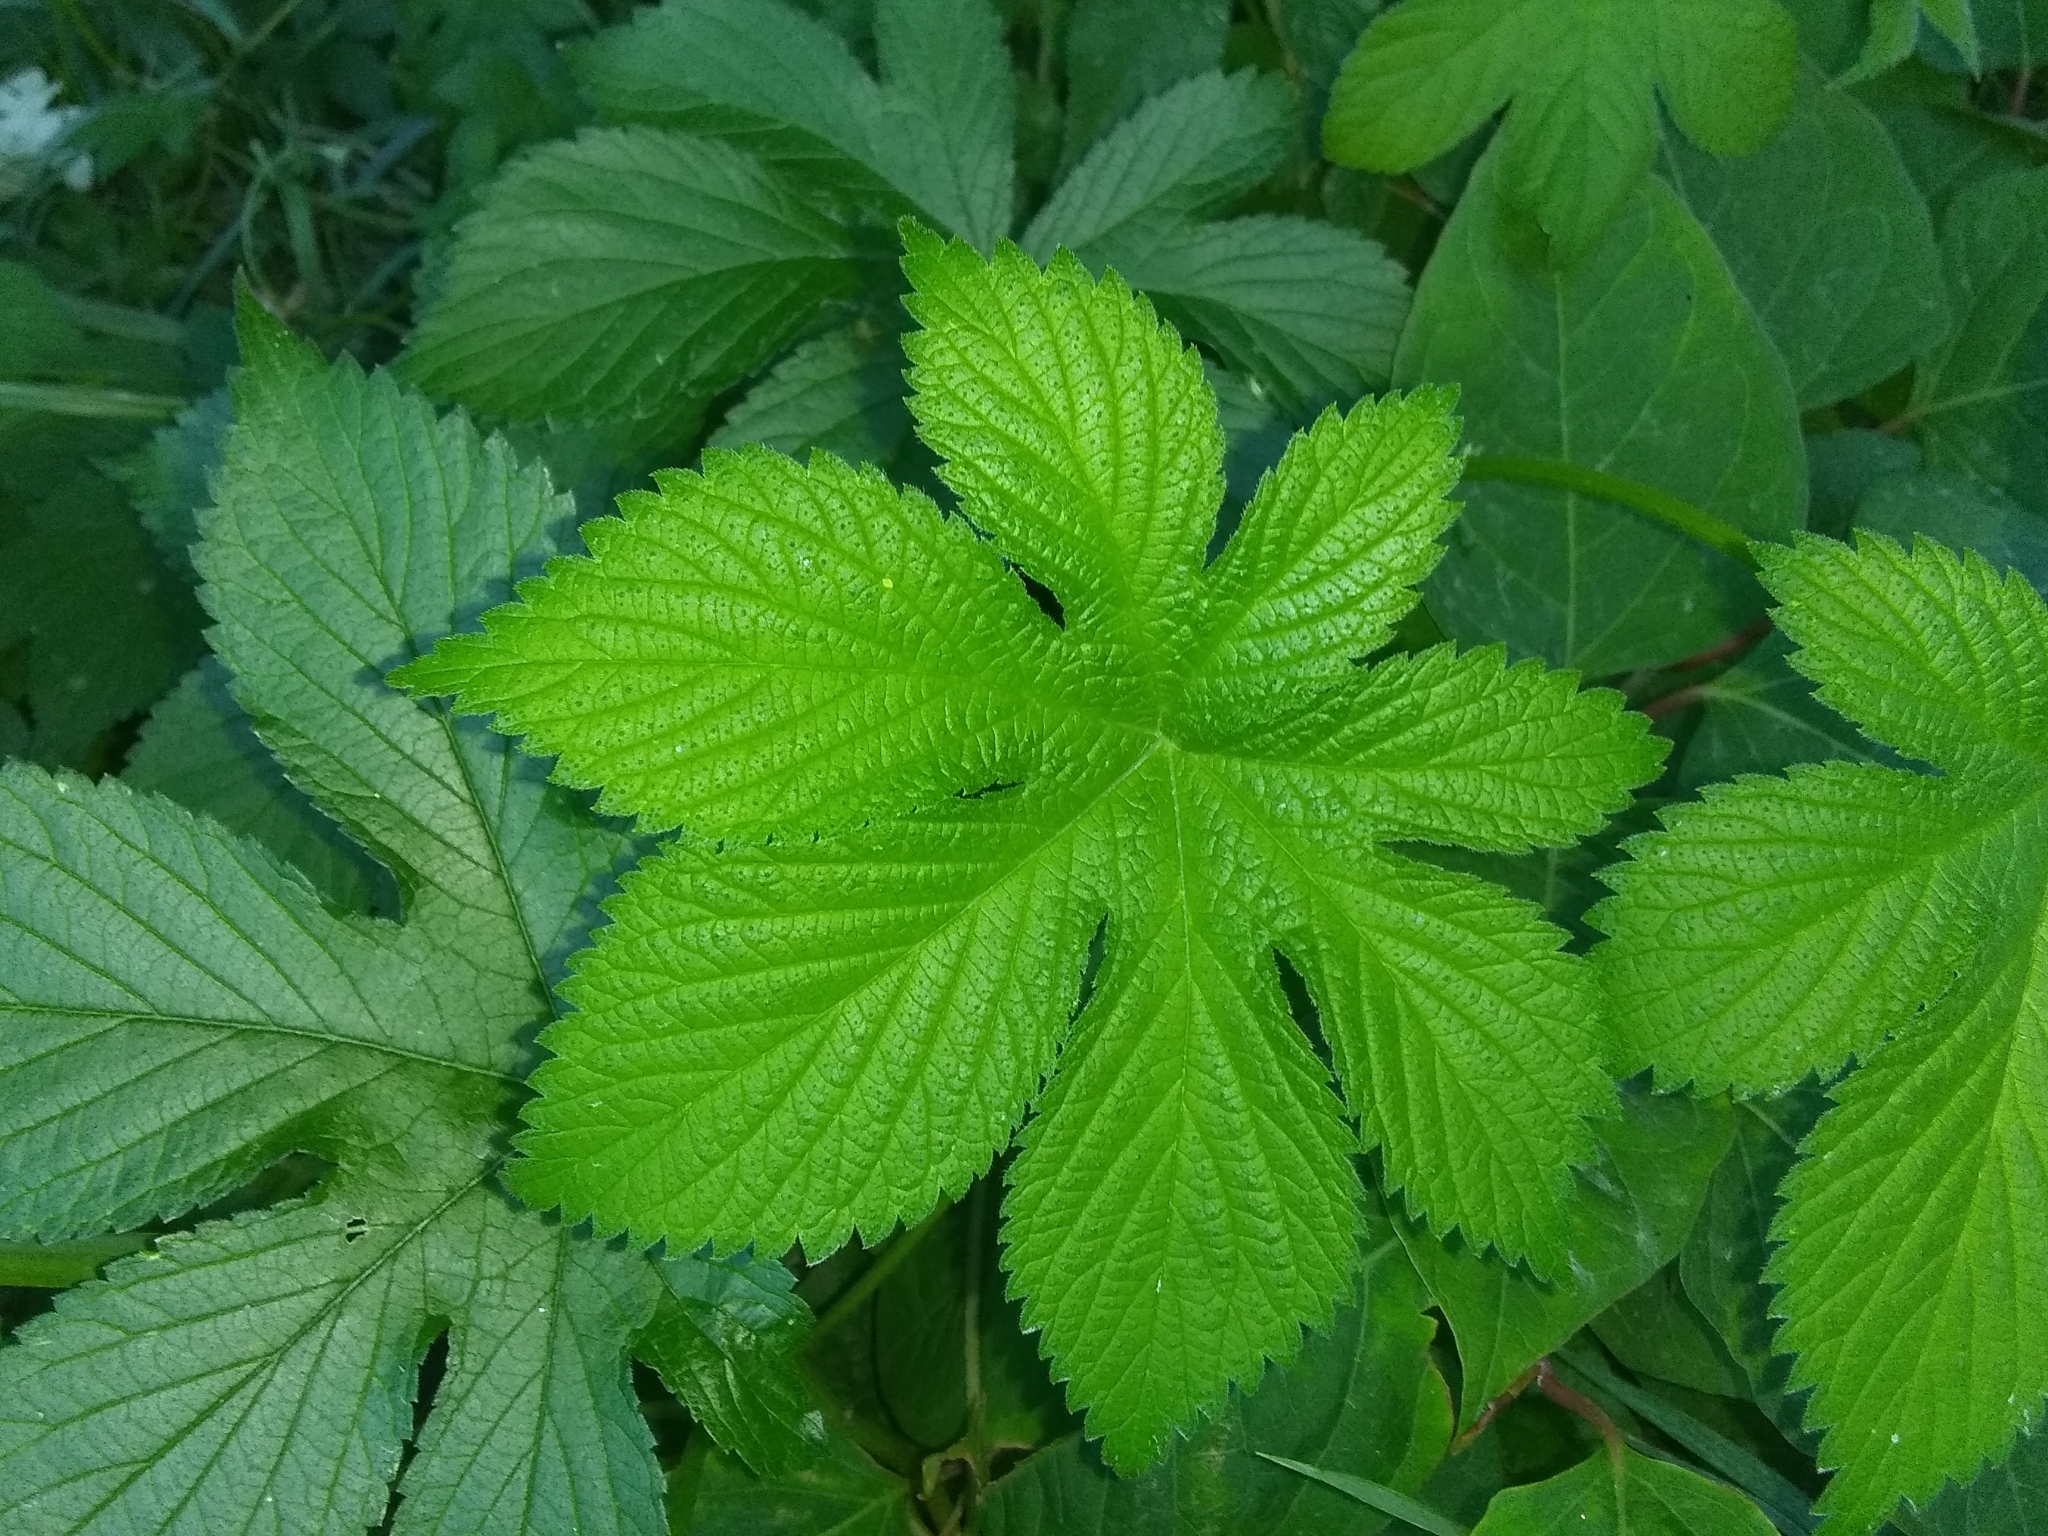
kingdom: Plantae
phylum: Tracheophyta
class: Magnoliopsida
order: Rosales
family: Cannabaceae
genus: Humulus
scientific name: Humulus scandens
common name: Japanese hop
